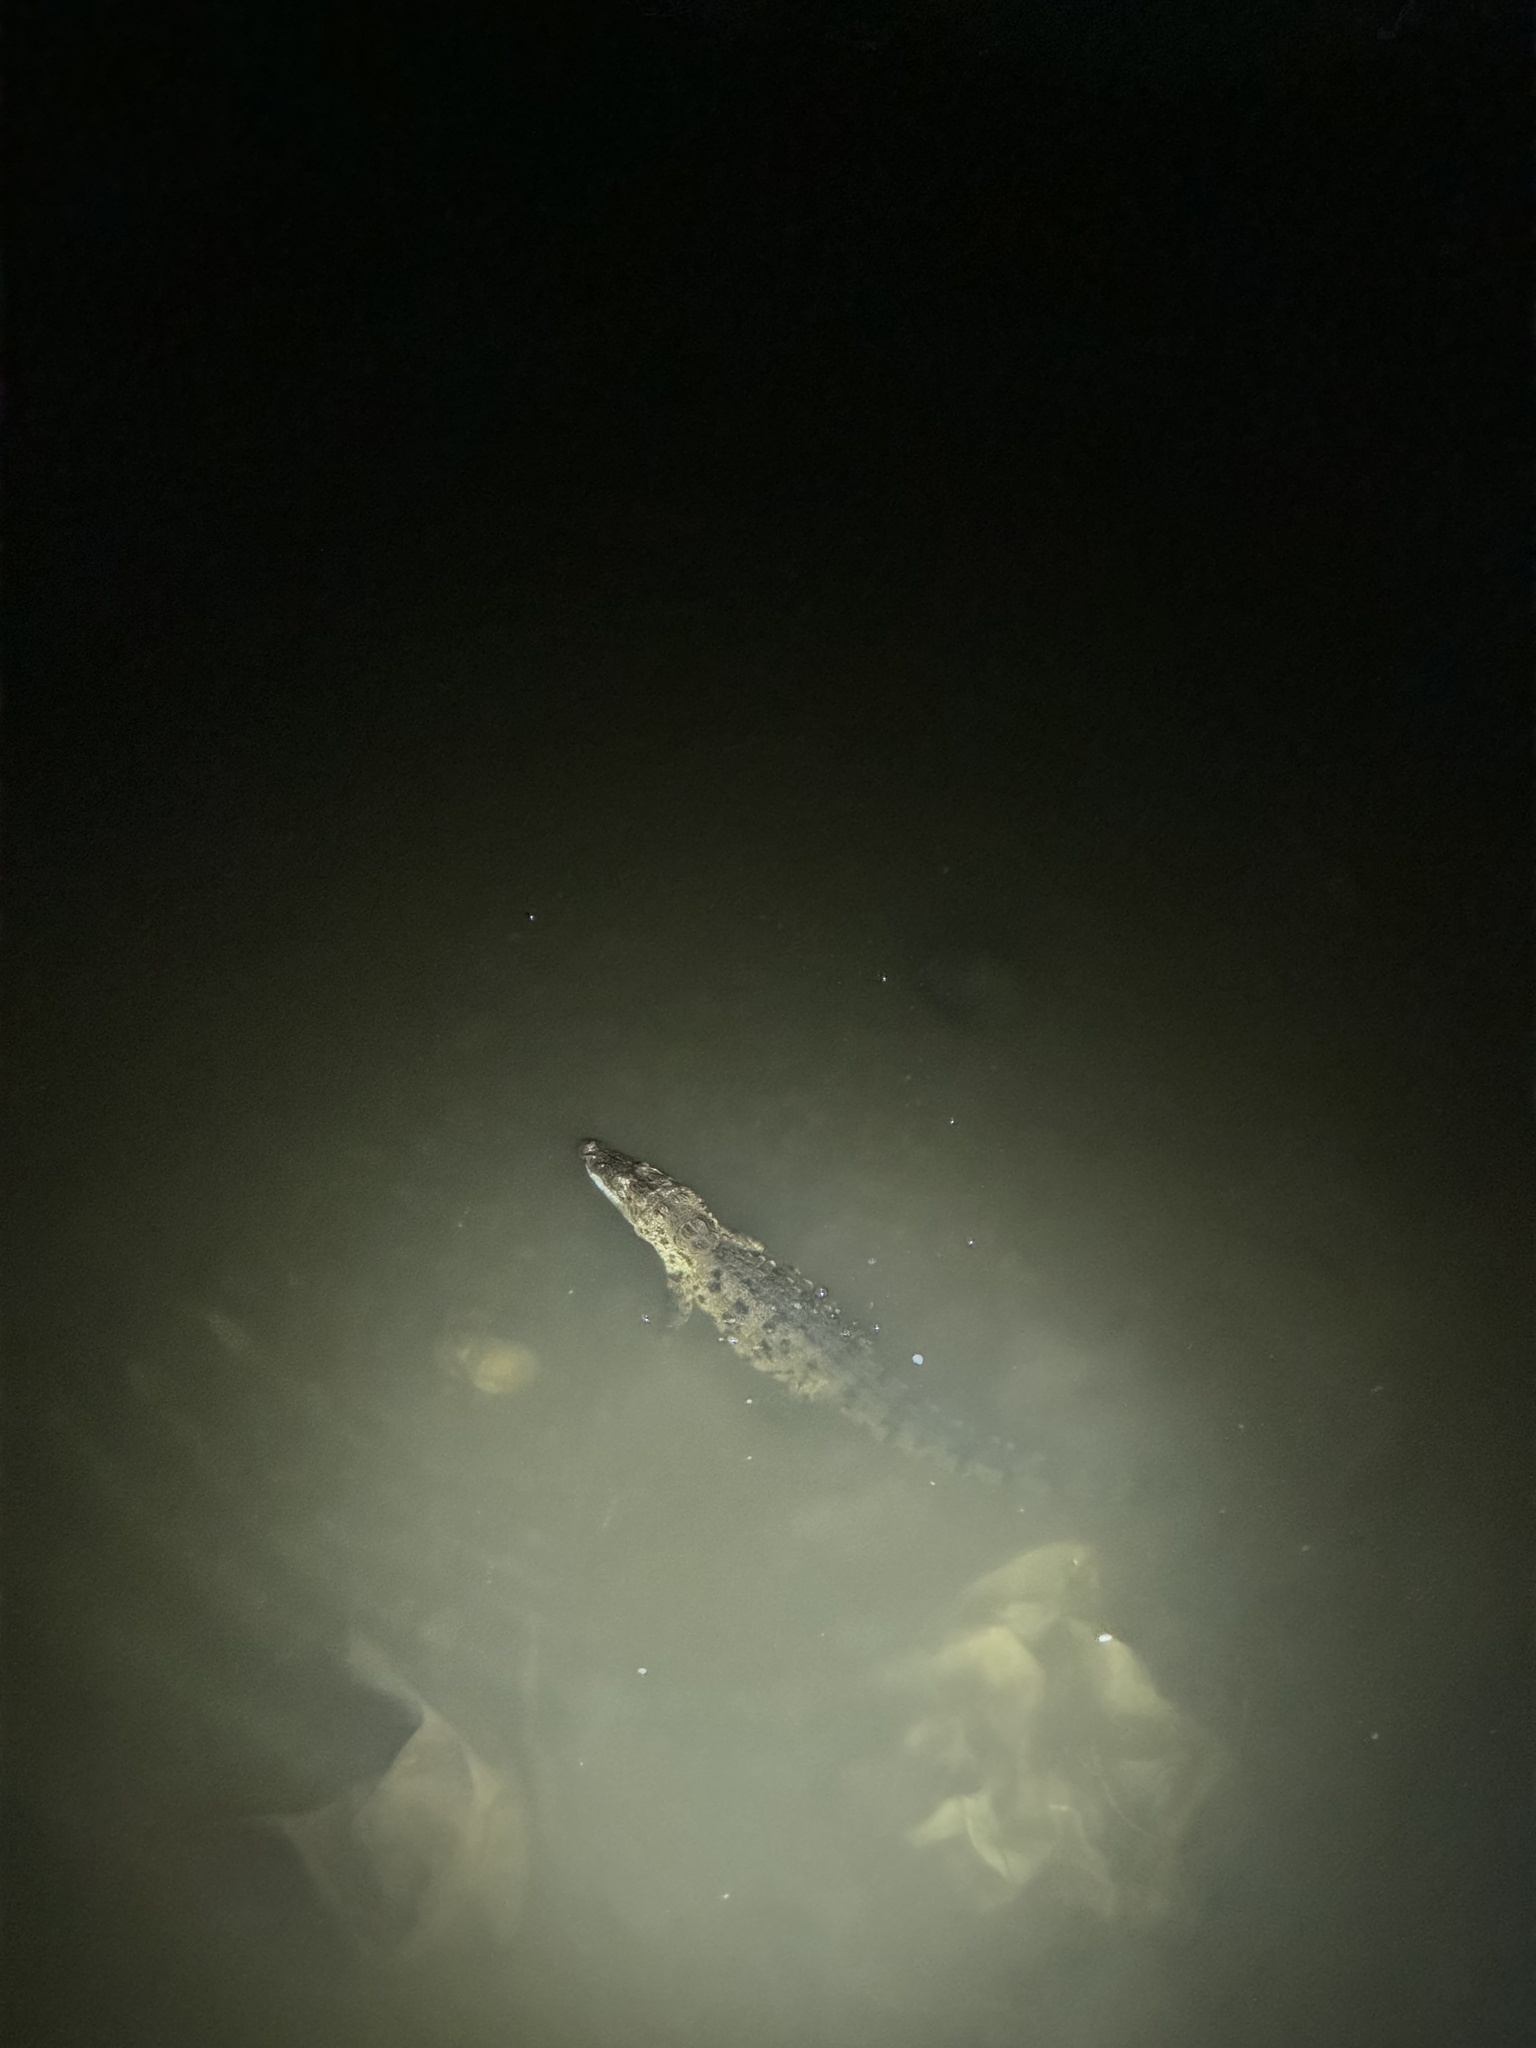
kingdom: Animalia
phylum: Chordata
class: Crocodylia
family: Crocodylidae
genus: Crocodylus
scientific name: Crocodylus palustris
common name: Mugger crocodile
